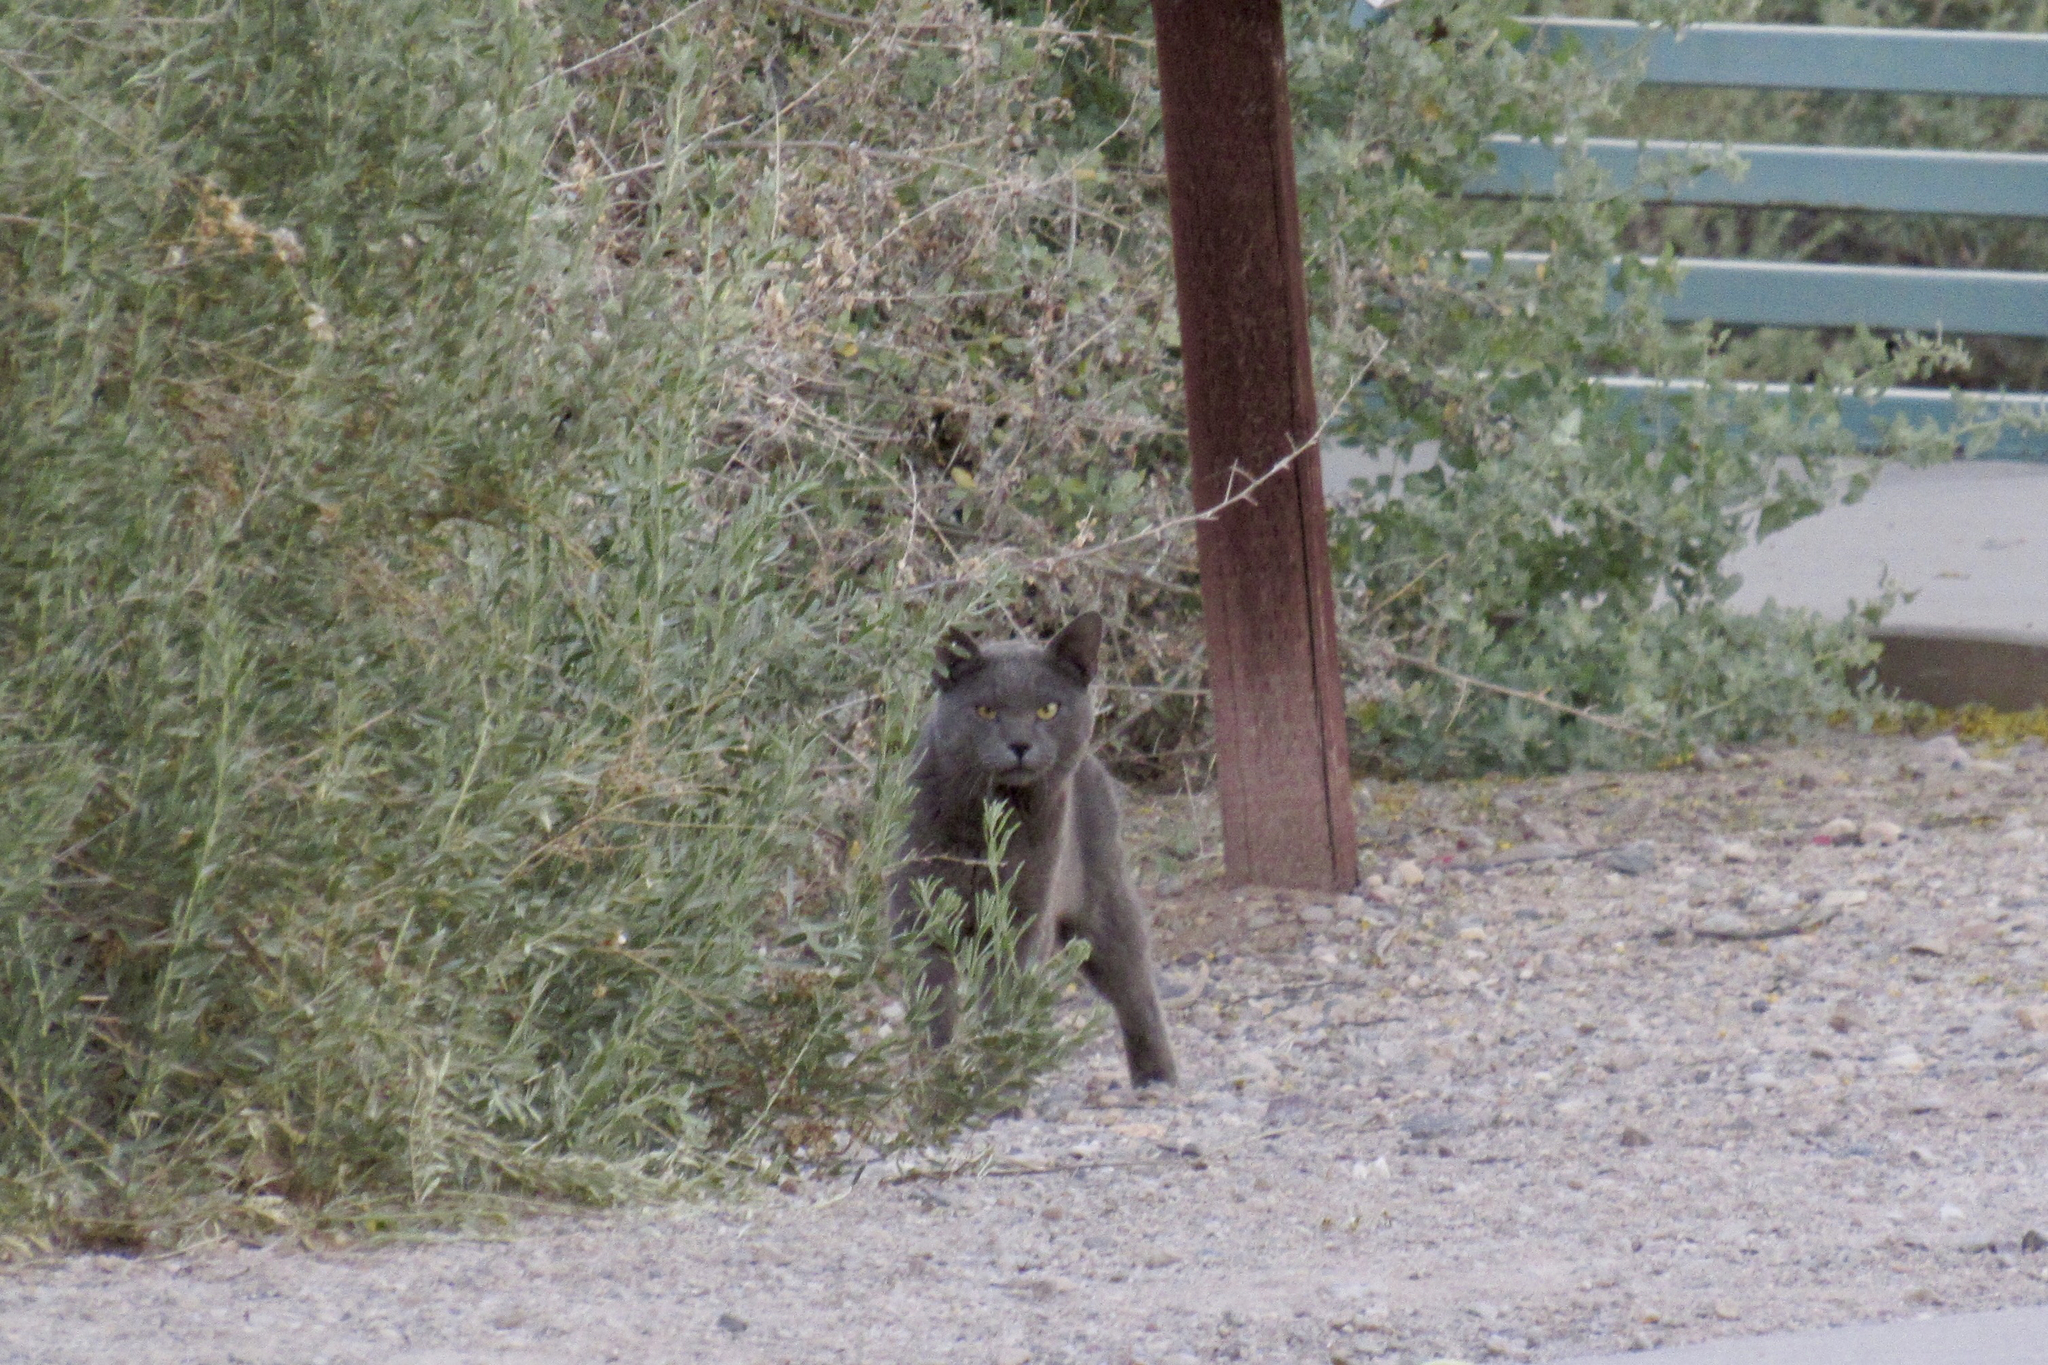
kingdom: Animalia
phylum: Chordata
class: Mammalia
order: Carnivora
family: Felidae
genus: Felis
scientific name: Felis catus
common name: Domestic cat
